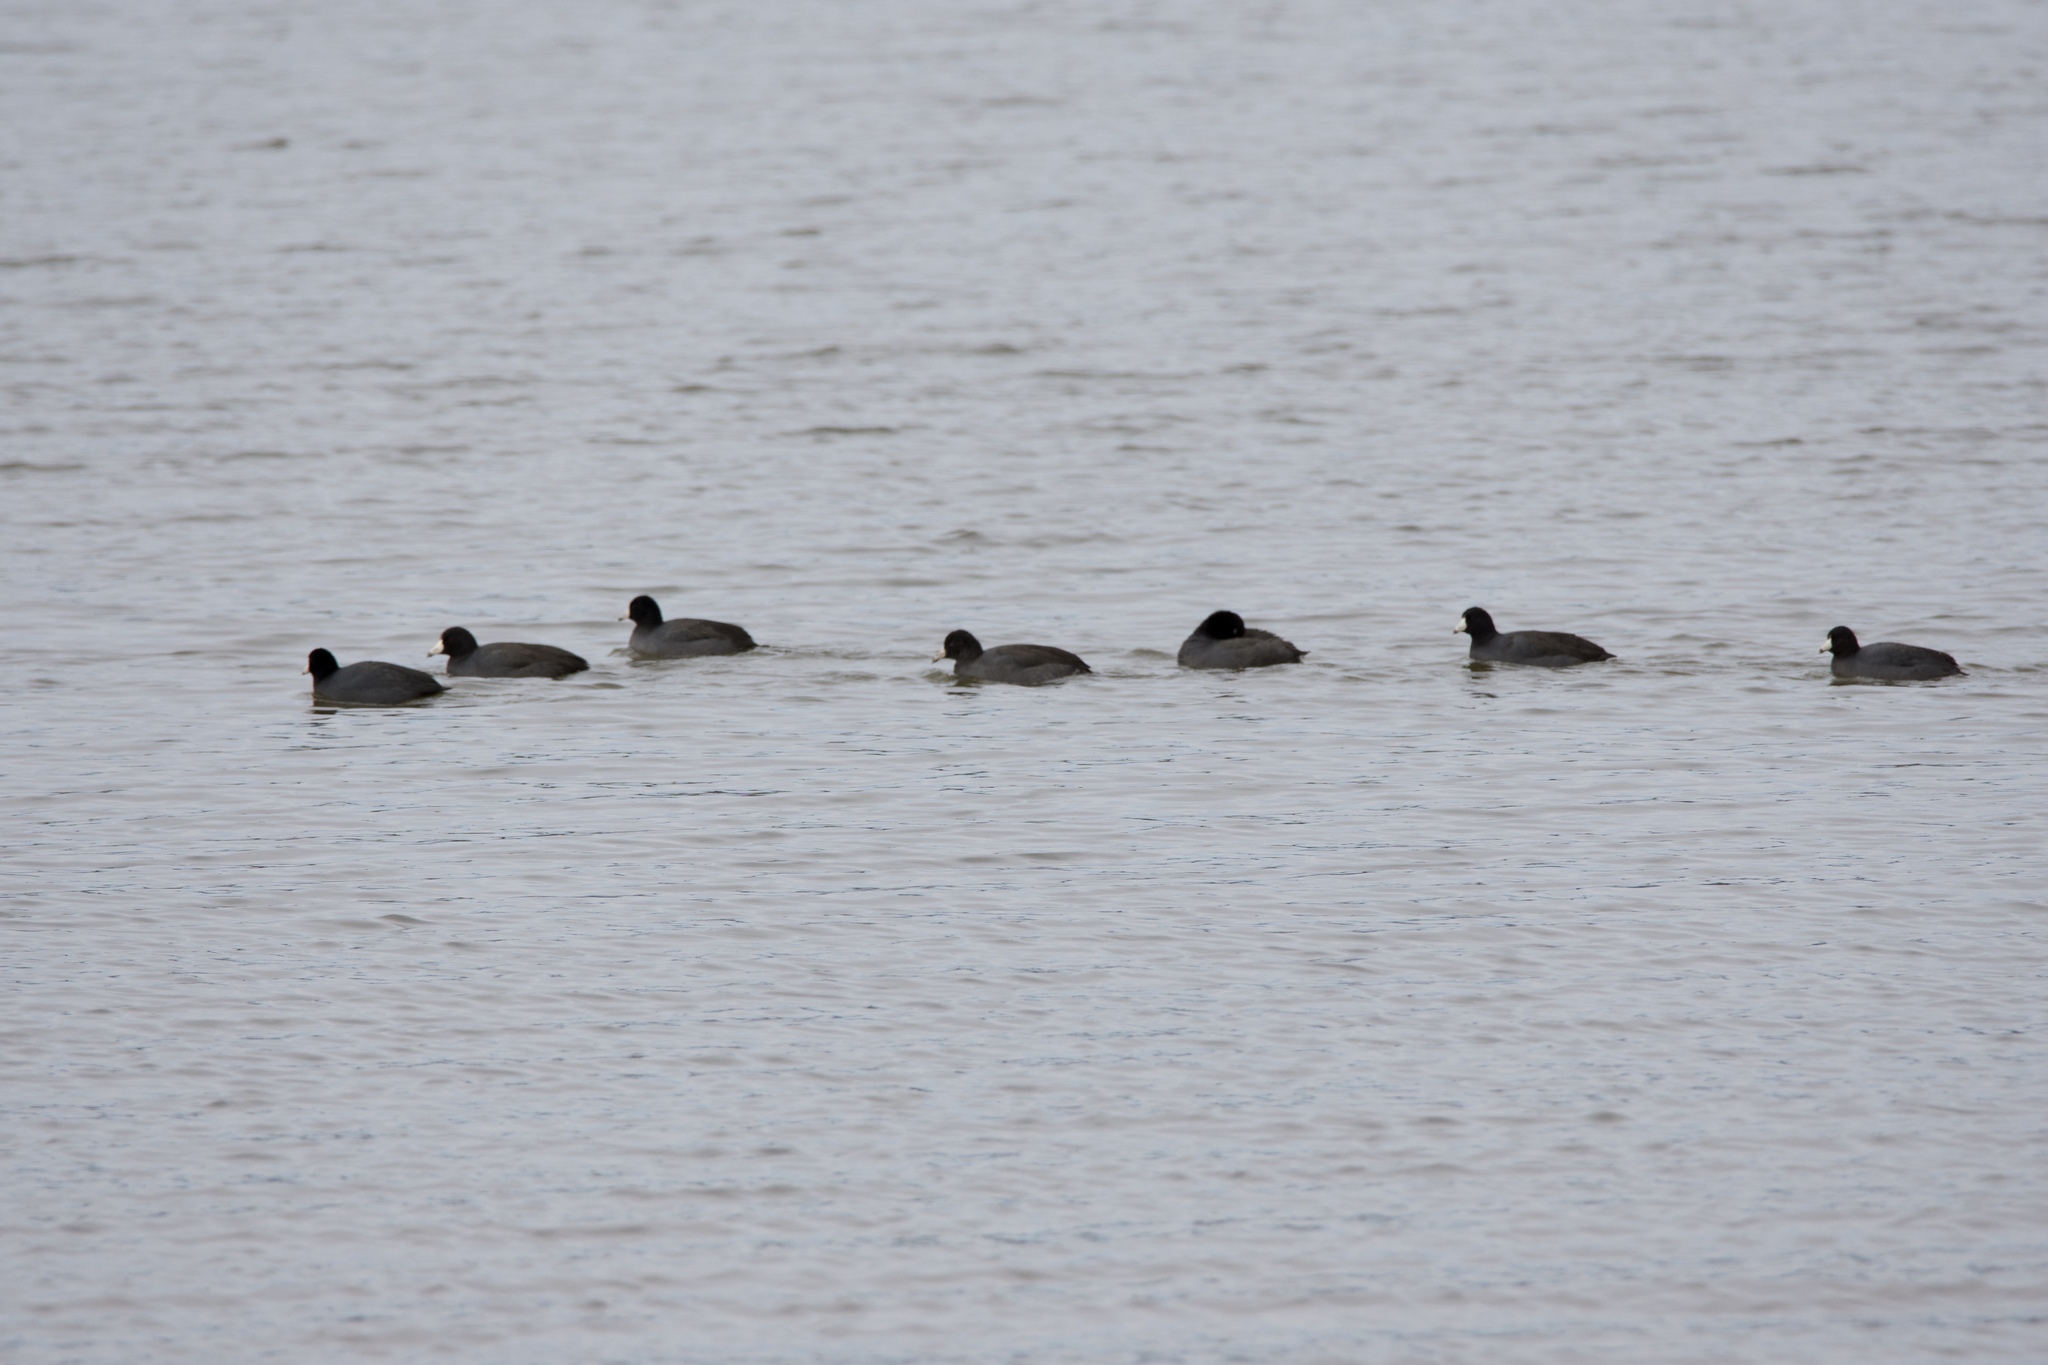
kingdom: Animalia
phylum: Chordata
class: Aves
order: Gruiformes
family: Rallidae
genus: Fulica
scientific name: Fulica americana
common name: American coot
